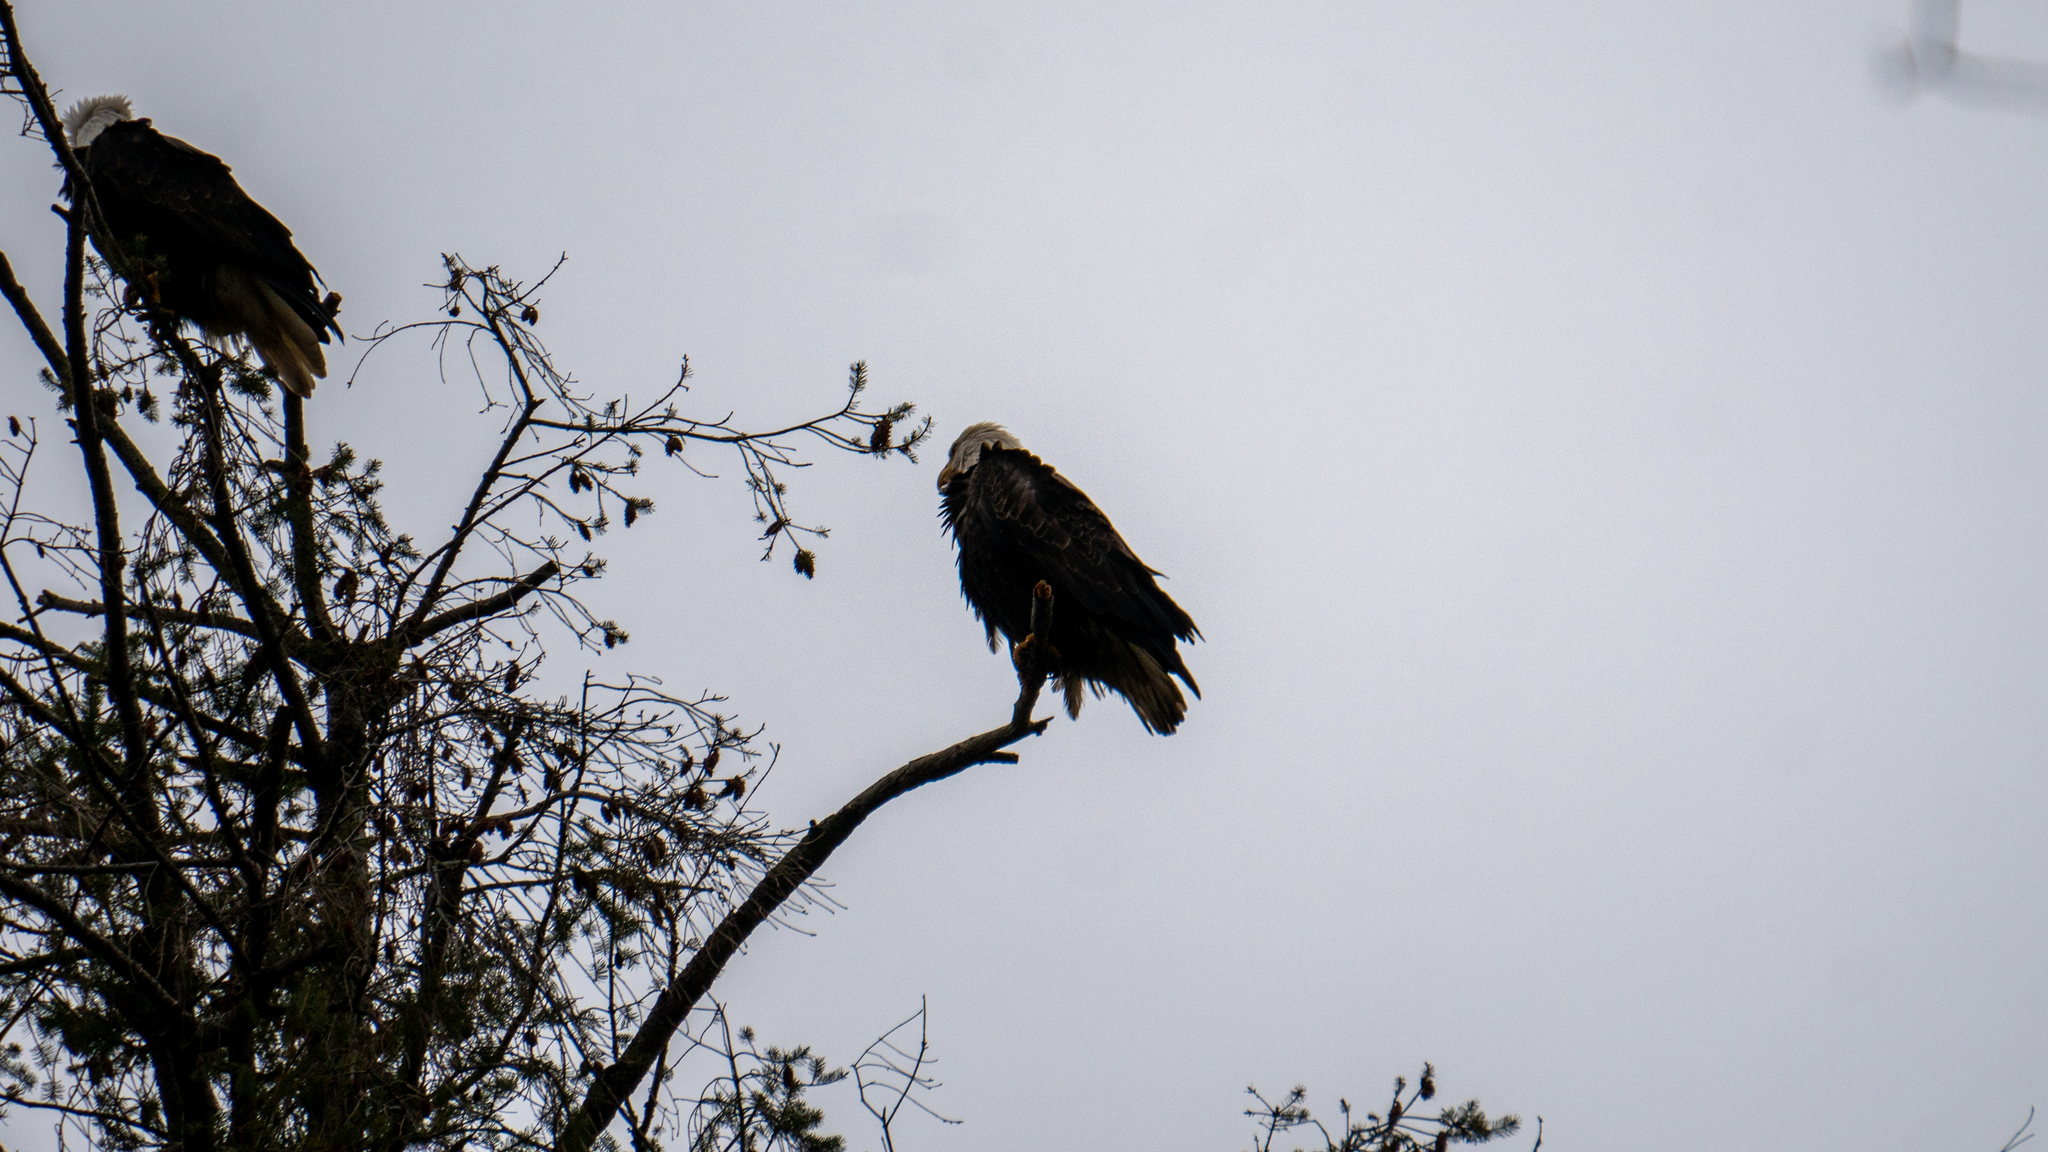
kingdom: Animalia
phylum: Chordata
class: Aves
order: Accipitriformes
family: Accipitridae
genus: Haliaeetus
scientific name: Haliaeetus leucocephalus
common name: Bald eagle
